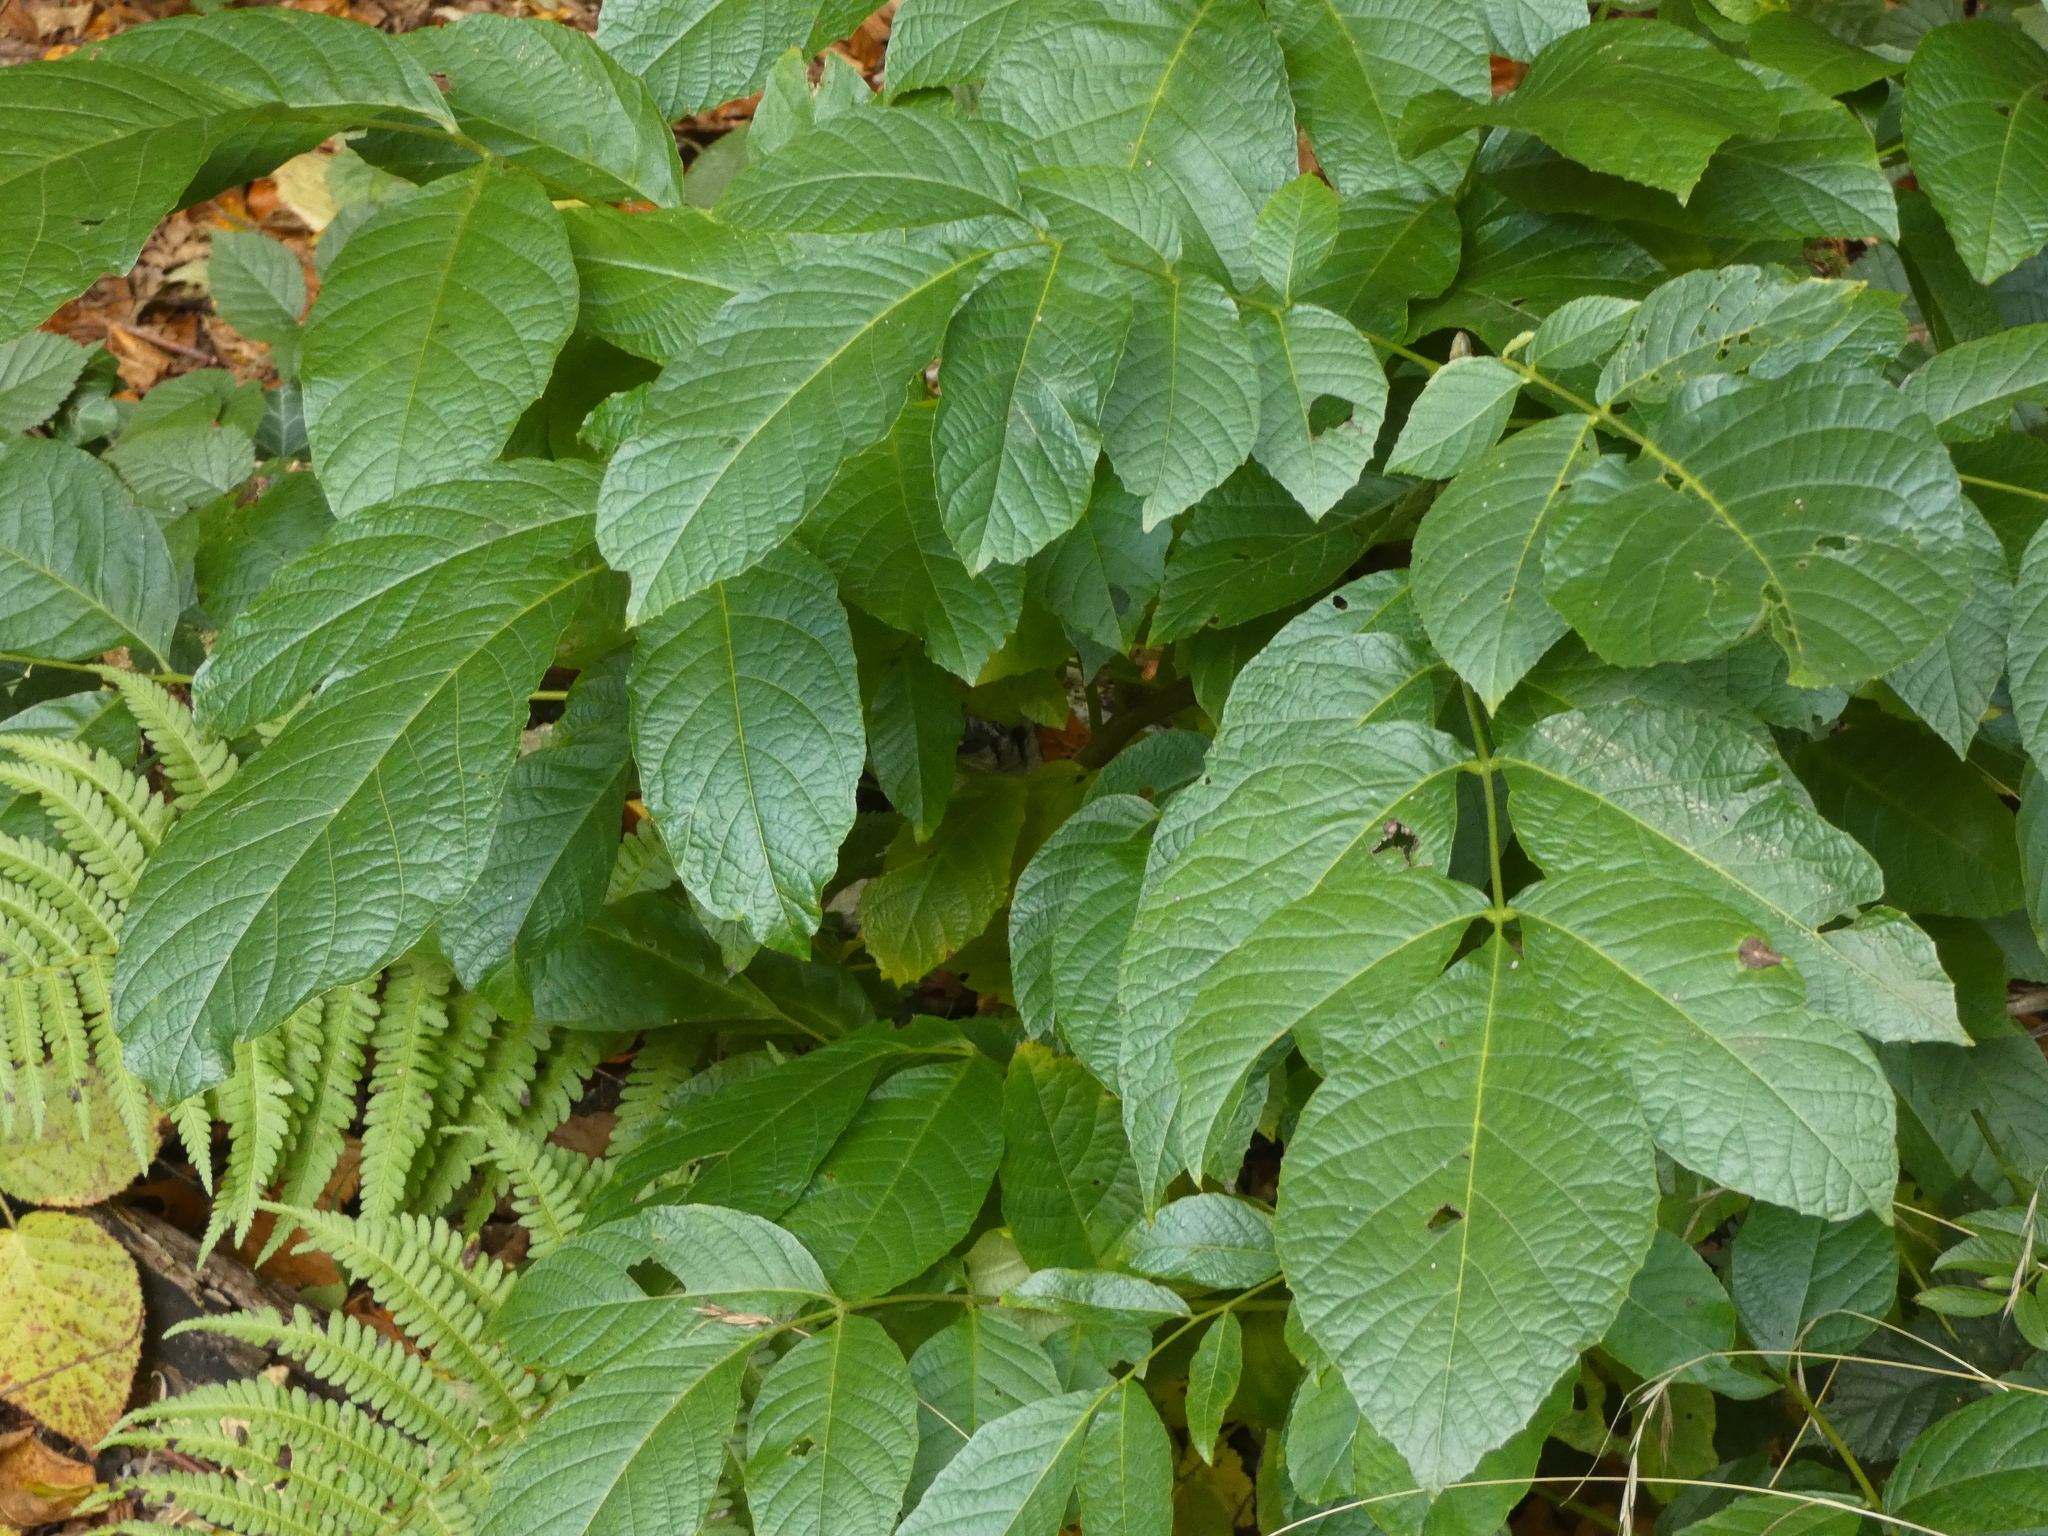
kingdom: Plantae
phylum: Tracheophyta
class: Magnoliopsida
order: Fagales
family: Juglandaceae
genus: Juglans
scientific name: Juglans regia
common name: Walnut
